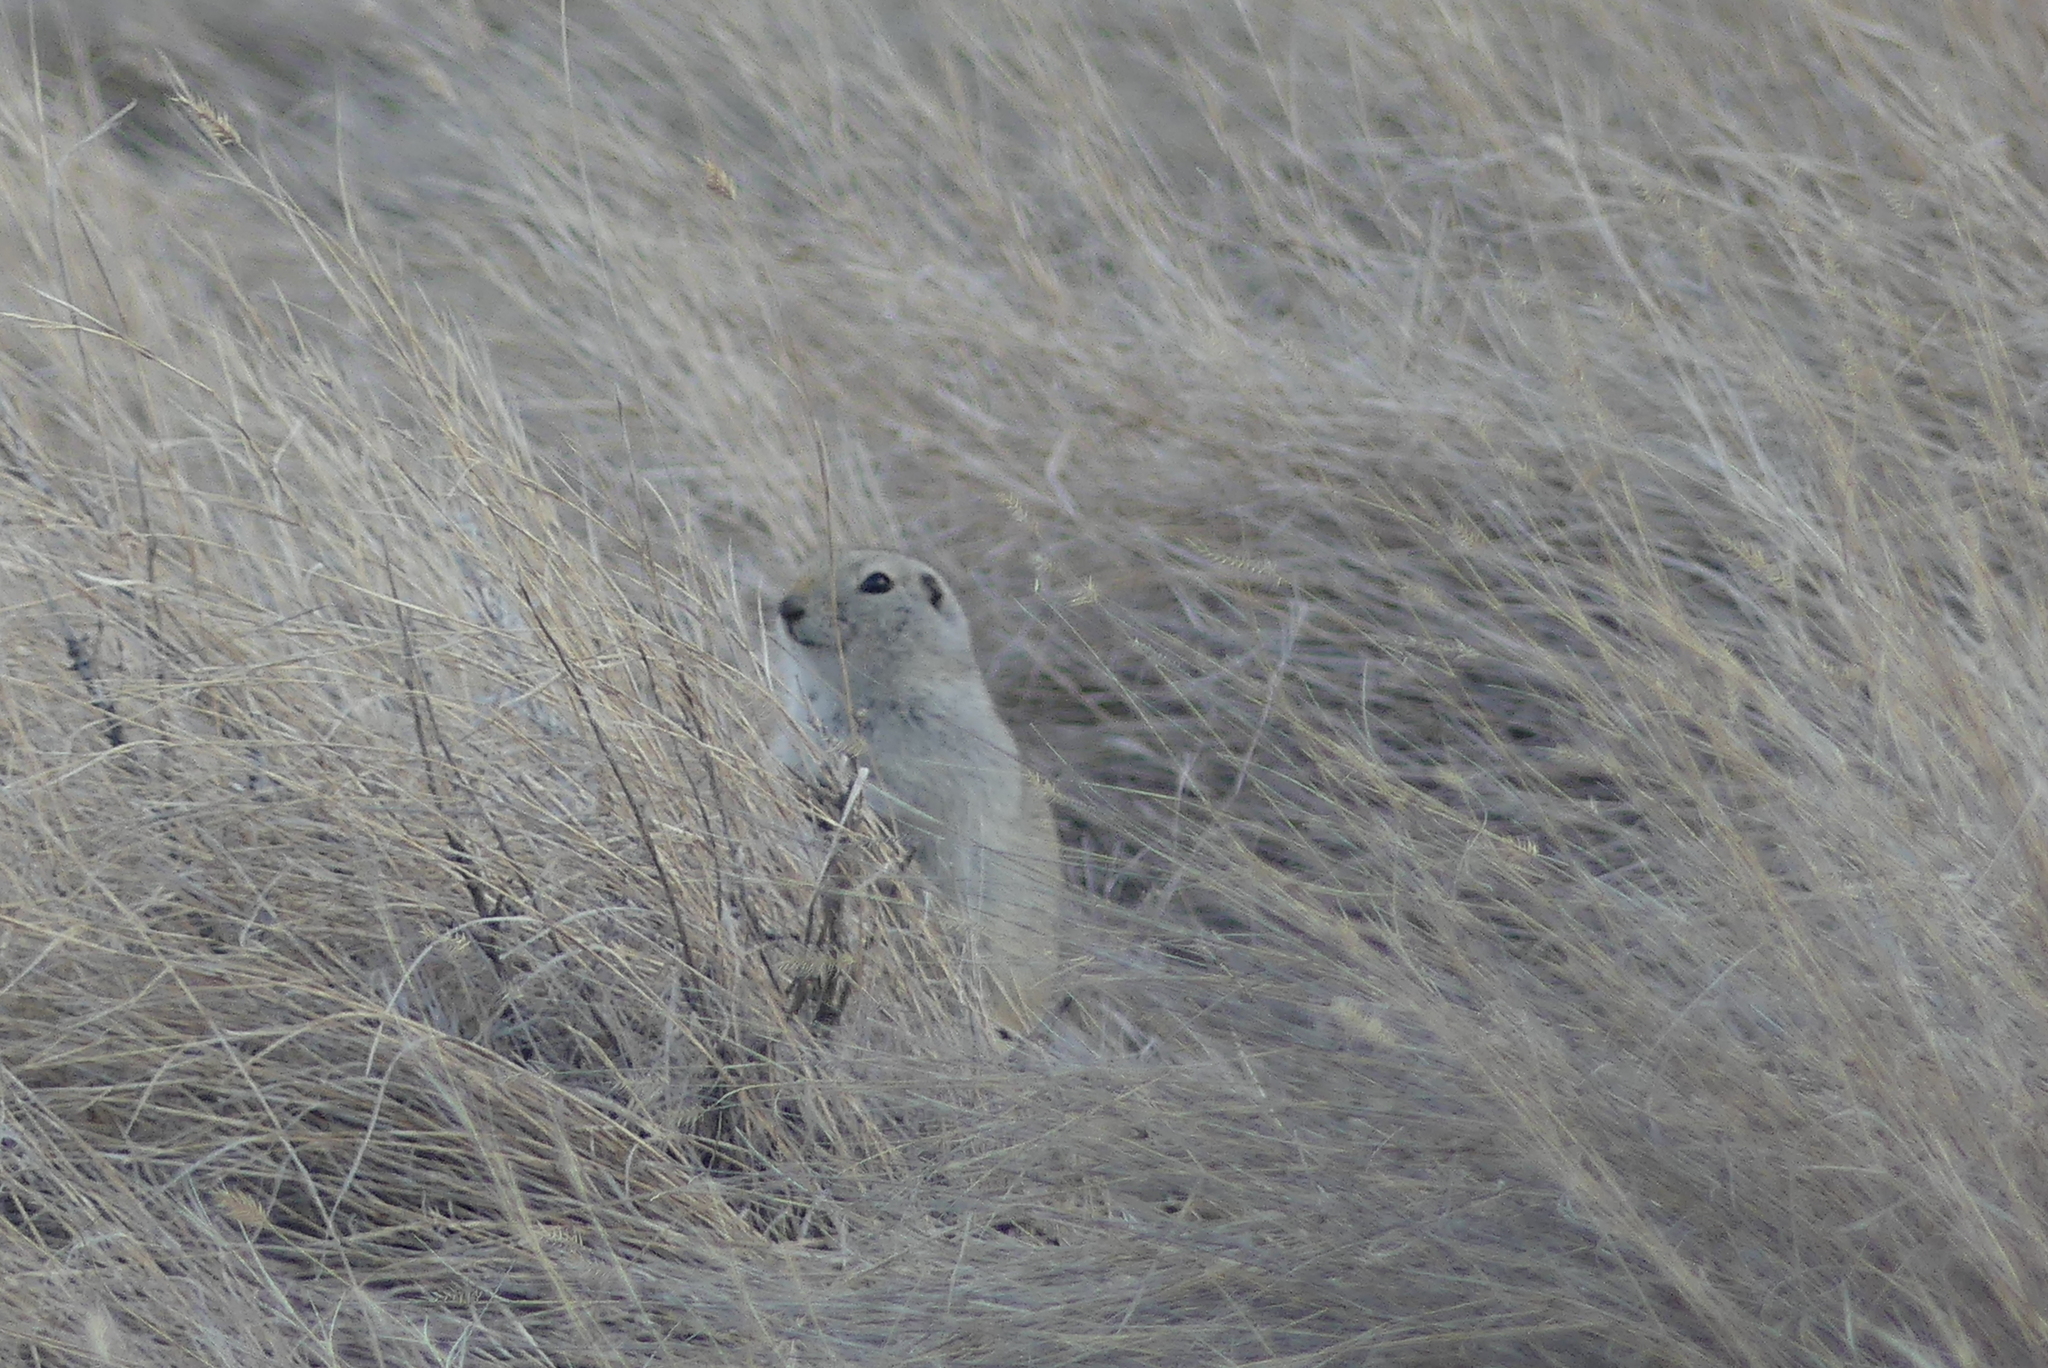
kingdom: Animalia
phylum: Chordata
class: Mammalia
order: Rodentia
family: Sciuridae
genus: Urocitellus
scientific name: Urocitellus richardsonii
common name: Richardson's ground squirrel
